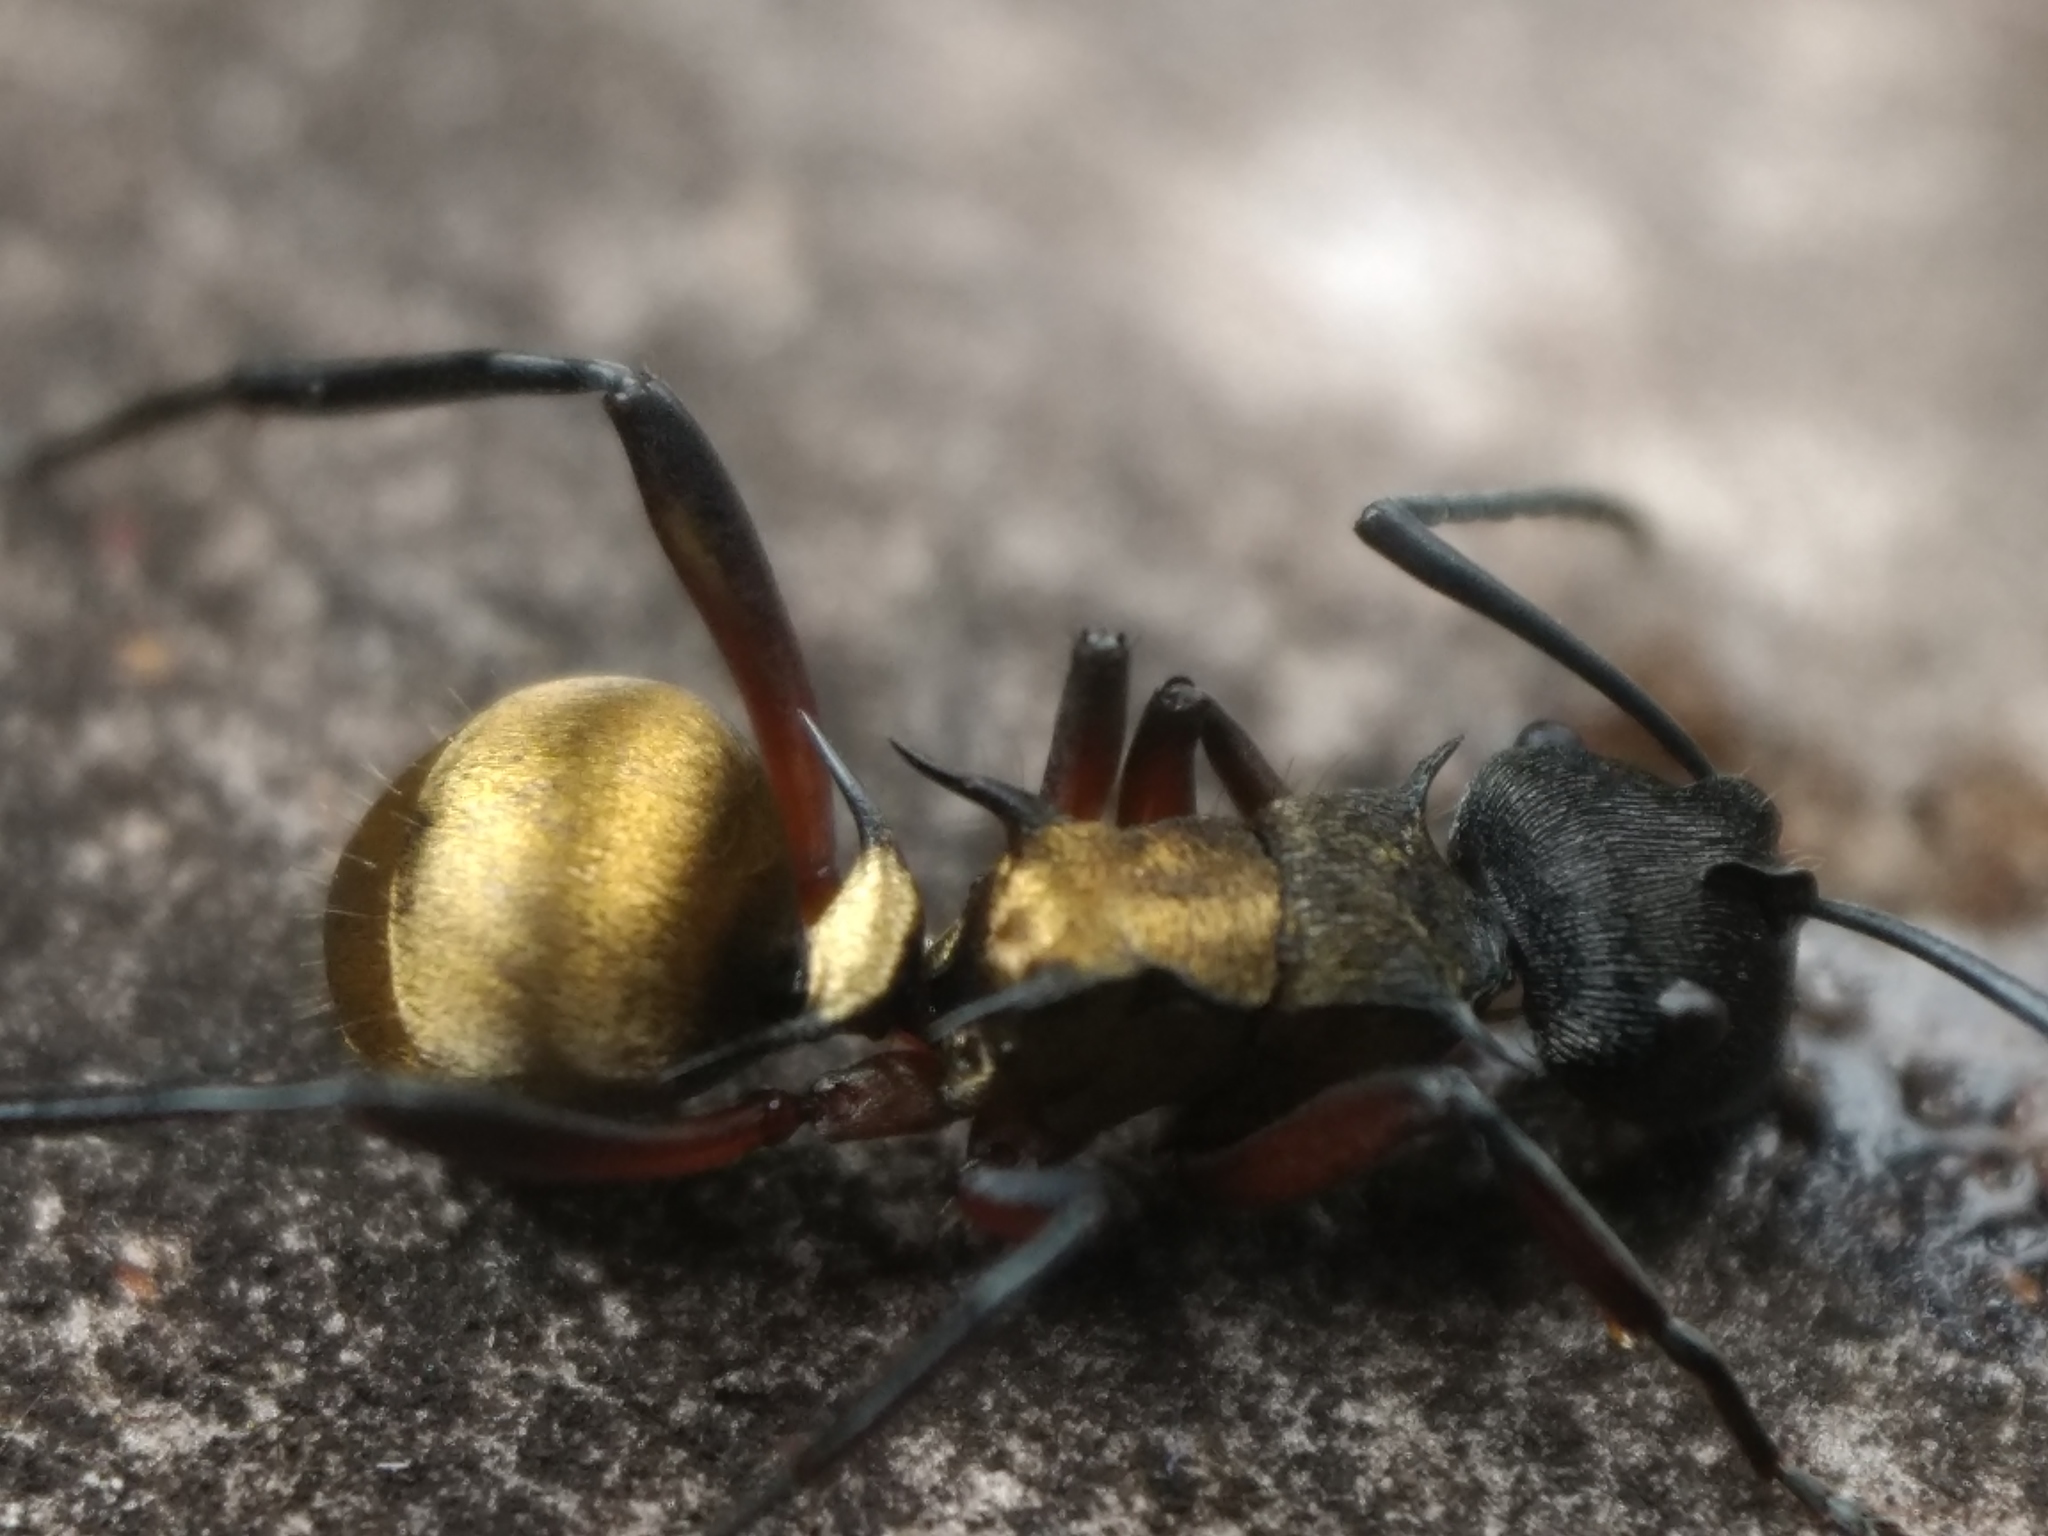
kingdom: Animalia
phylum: Arthropoda
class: Insecta
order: Hymenoptera
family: Formicidae
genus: Polyrhachis
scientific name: Polyrhachis rufifemur
